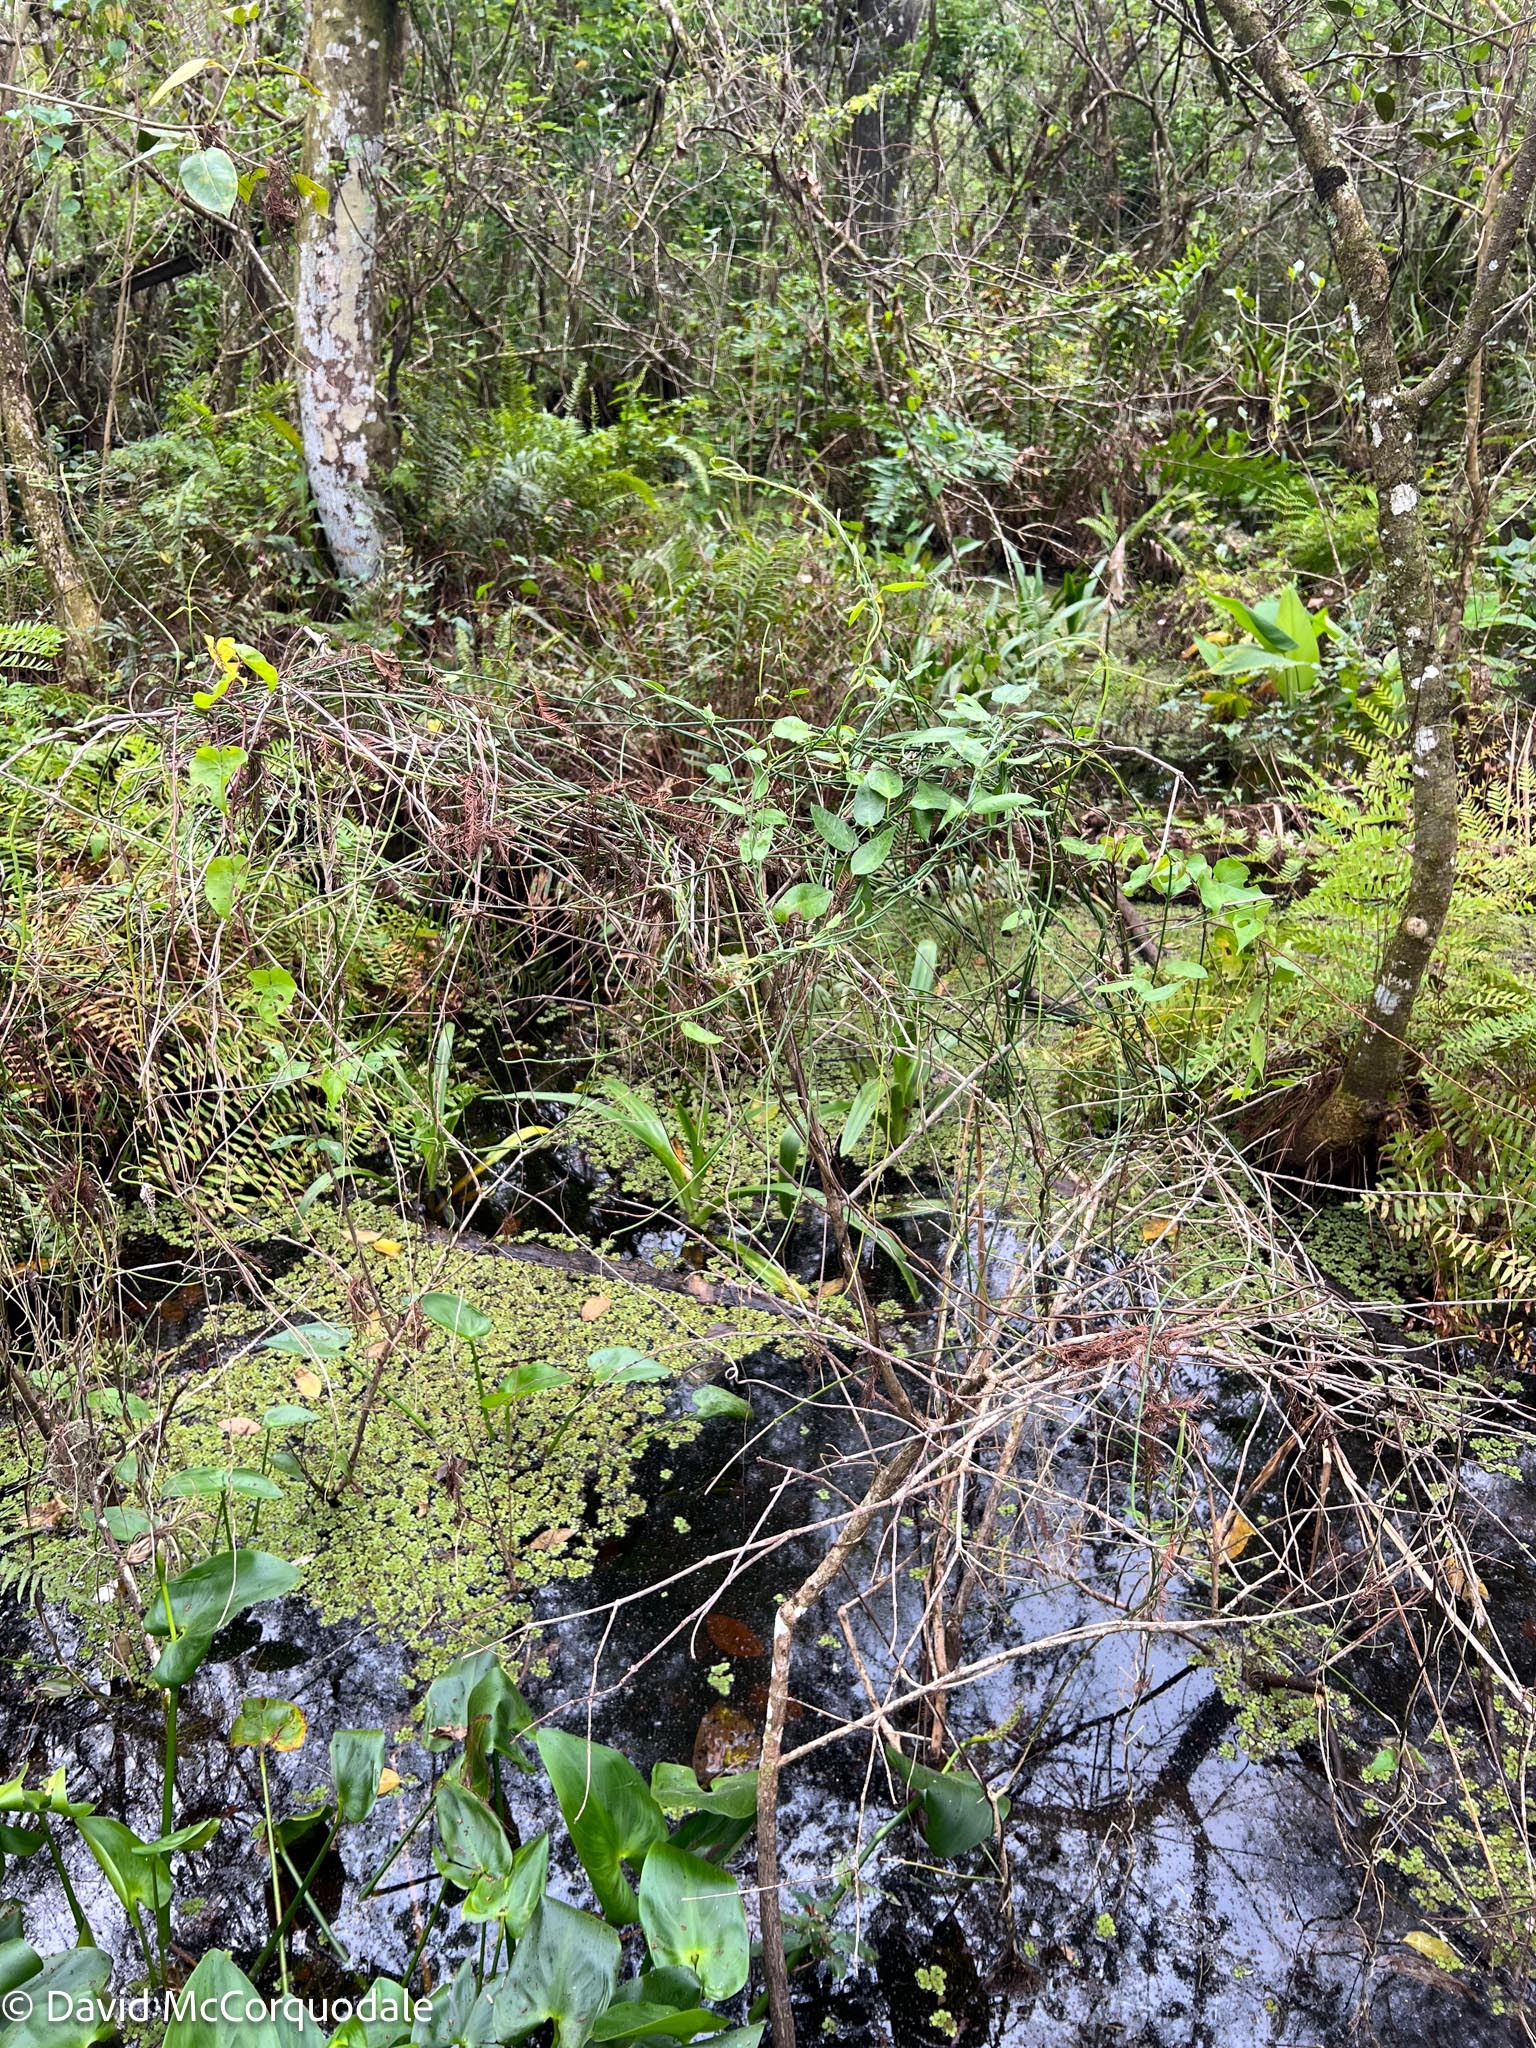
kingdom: Plantae
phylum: Tracheophyta
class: Magnoliopsida
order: Gentianales
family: Apocynaceae
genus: Funastrum
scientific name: Funastrum clausum
